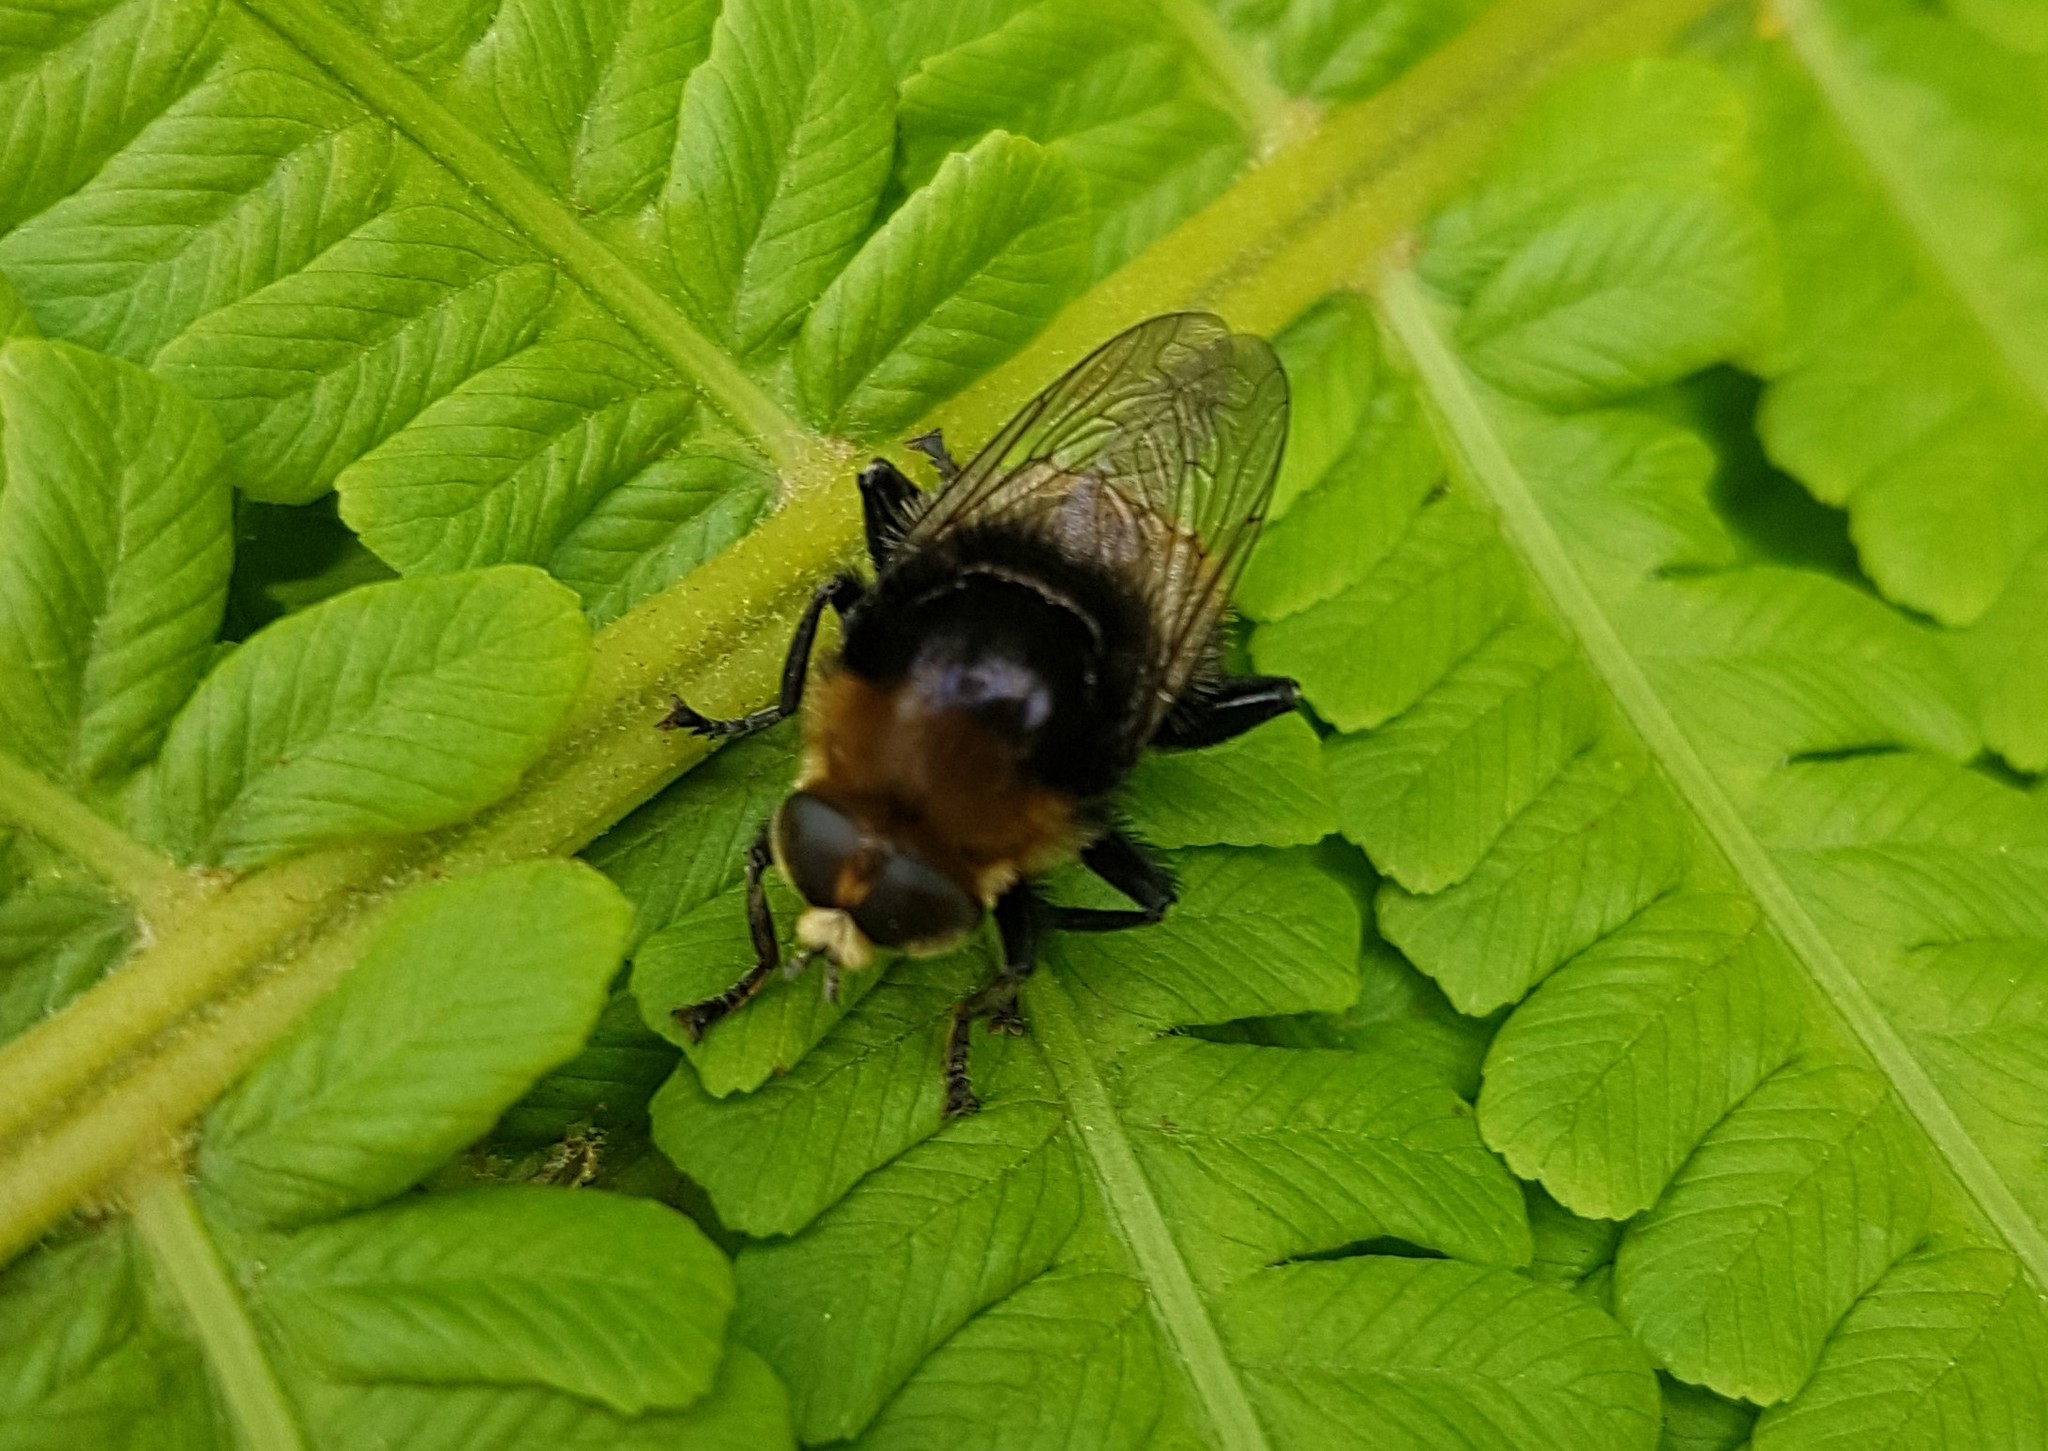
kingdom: Animalia
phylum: Arthropoda
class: Insecta
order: Diptera
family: Syrphidae
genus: Merodon
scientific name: Merodon equestris
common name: Greater bulb-fly
